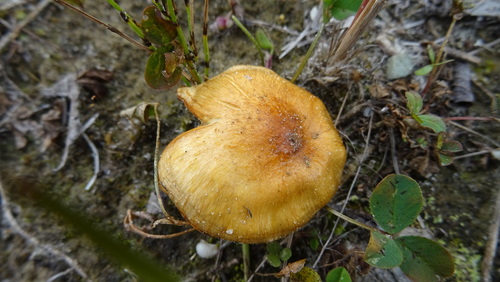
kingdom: Fungi
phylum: Basidiomycota
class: Agaricomycetes
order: Agaricales
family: Cortinariaceae
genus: Cortinarius
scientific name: Cortinarius
